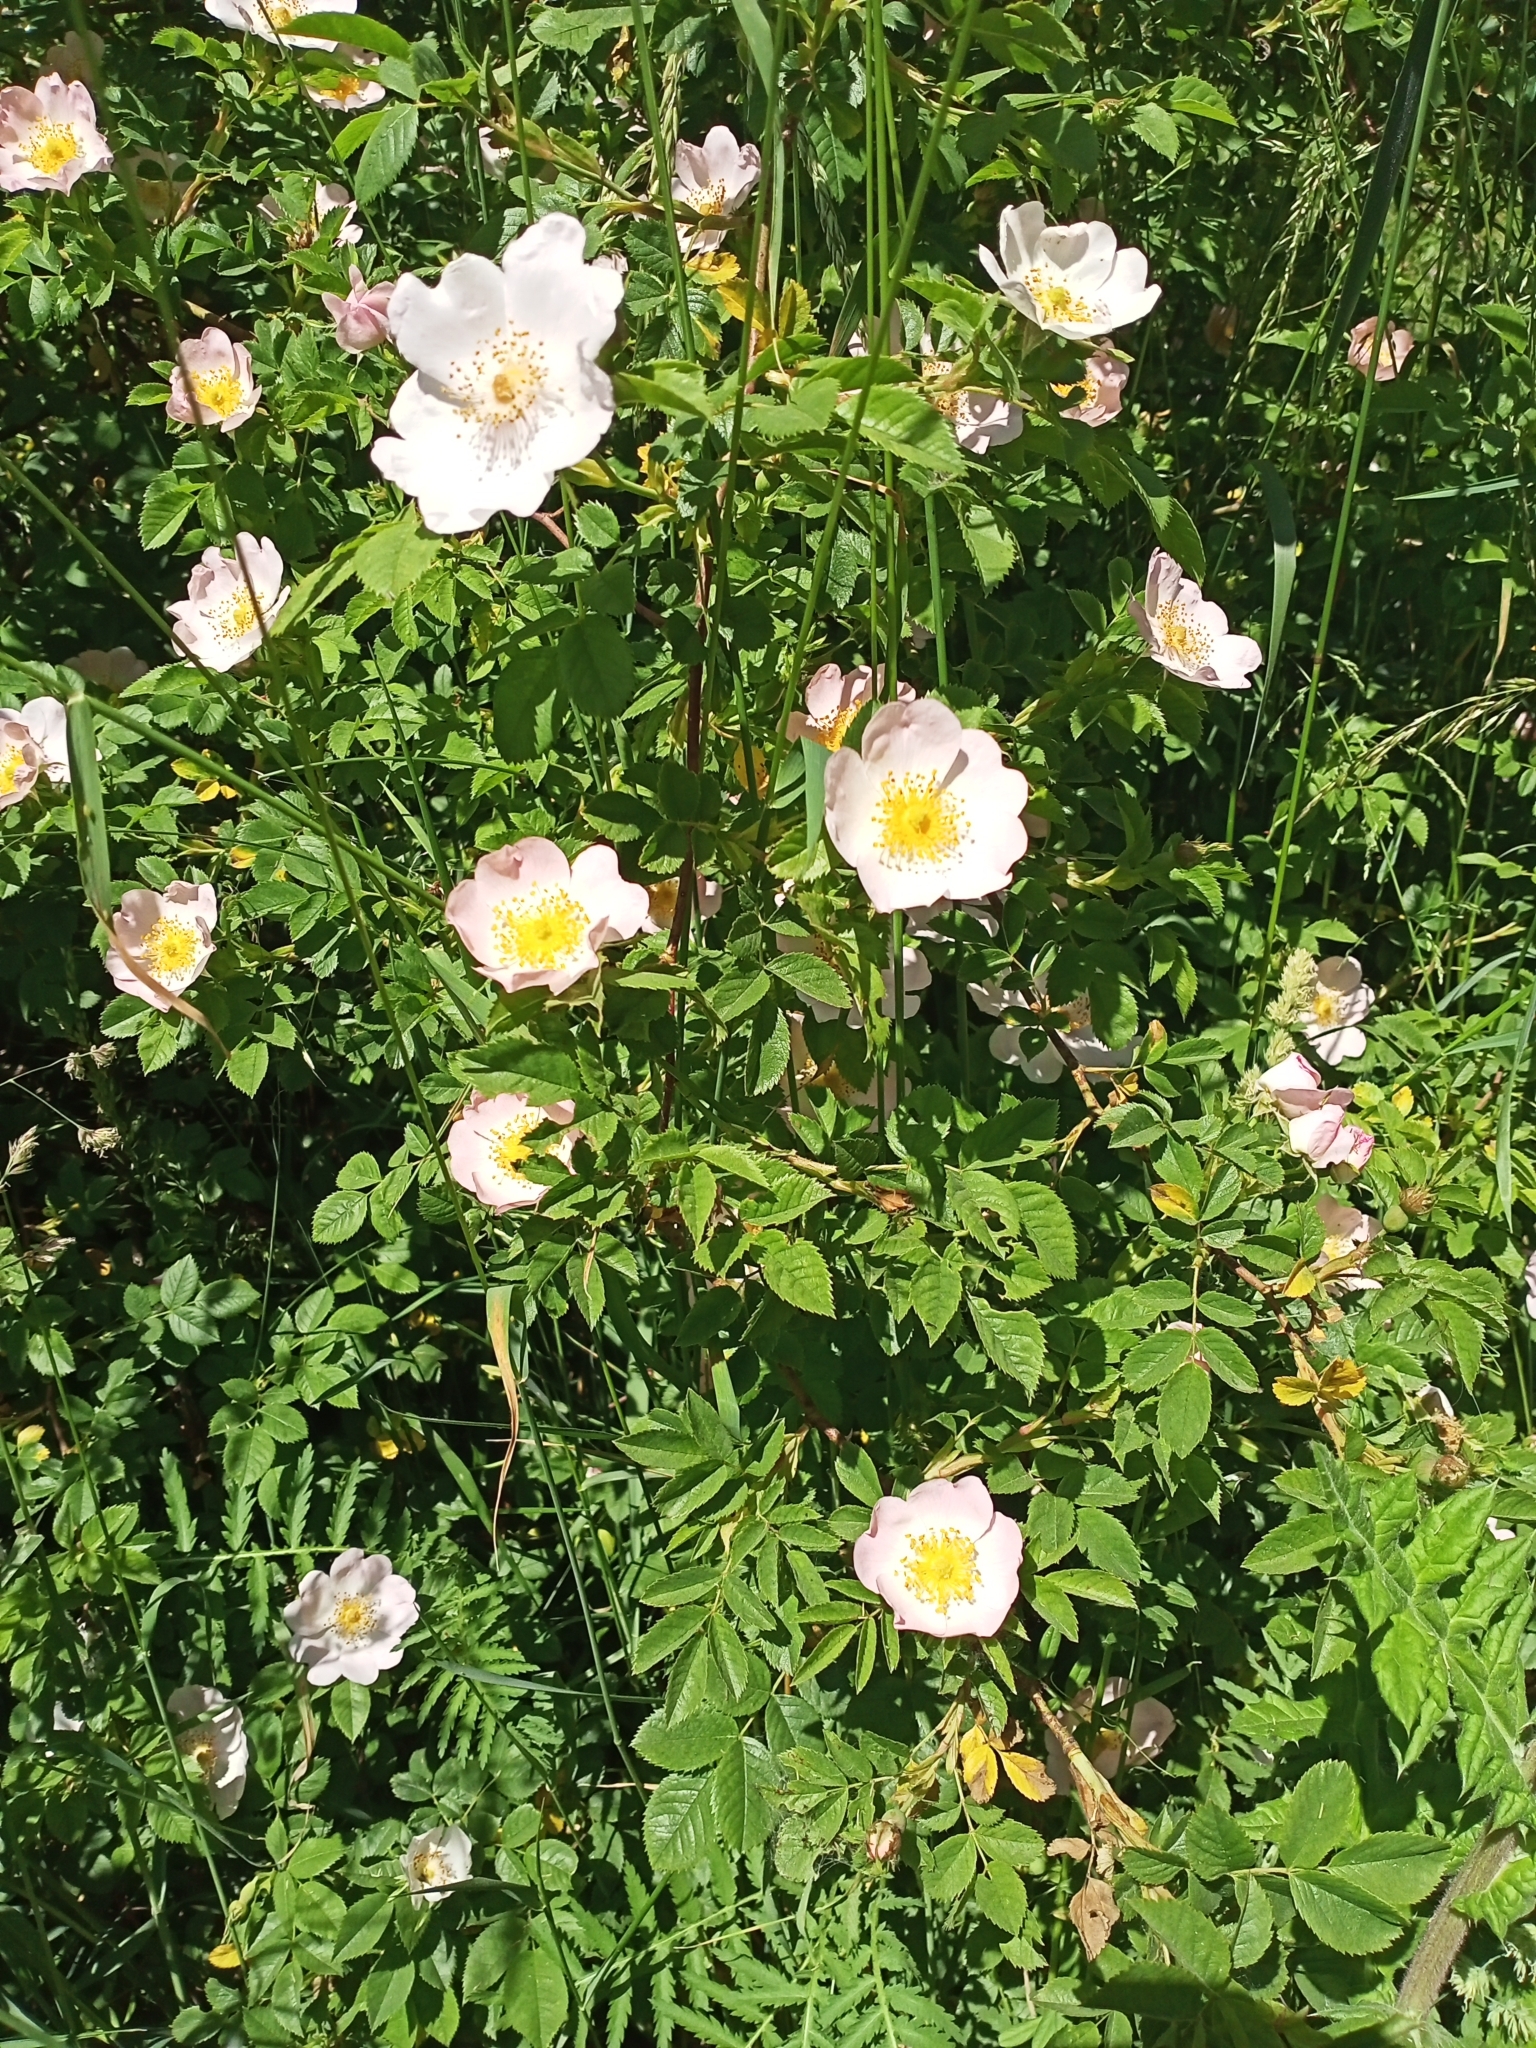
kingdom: Plantae
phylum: Tracheophyta
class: Magnoliopsida
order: Rosales
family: Rosaceae
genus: Rosa
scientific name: Rosa canina
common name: Dog rose
